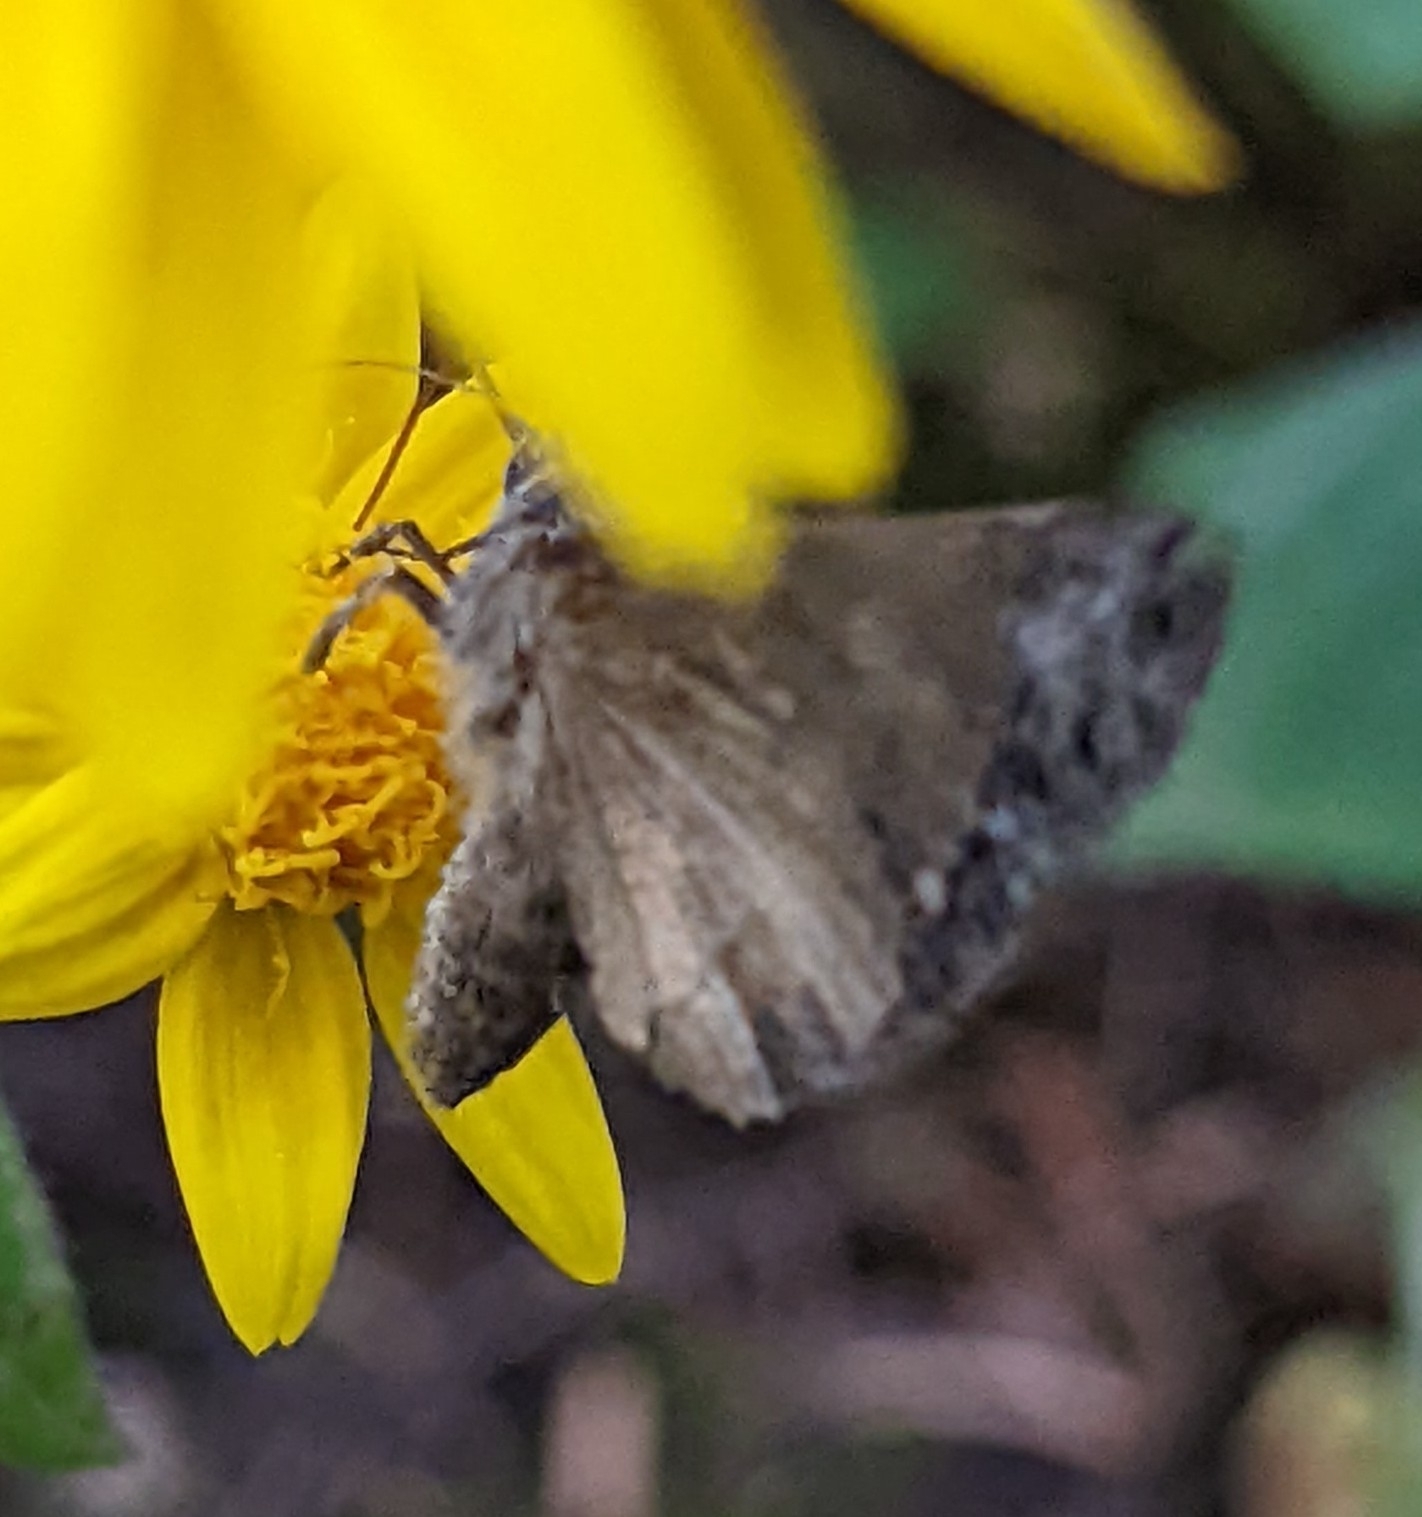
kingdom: Animalia
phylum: Arthropoda
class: Insecta
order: Lepidoptera
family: Noctuidae
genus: Autographa
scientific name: Autographa californica
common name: Alfalfa looper
